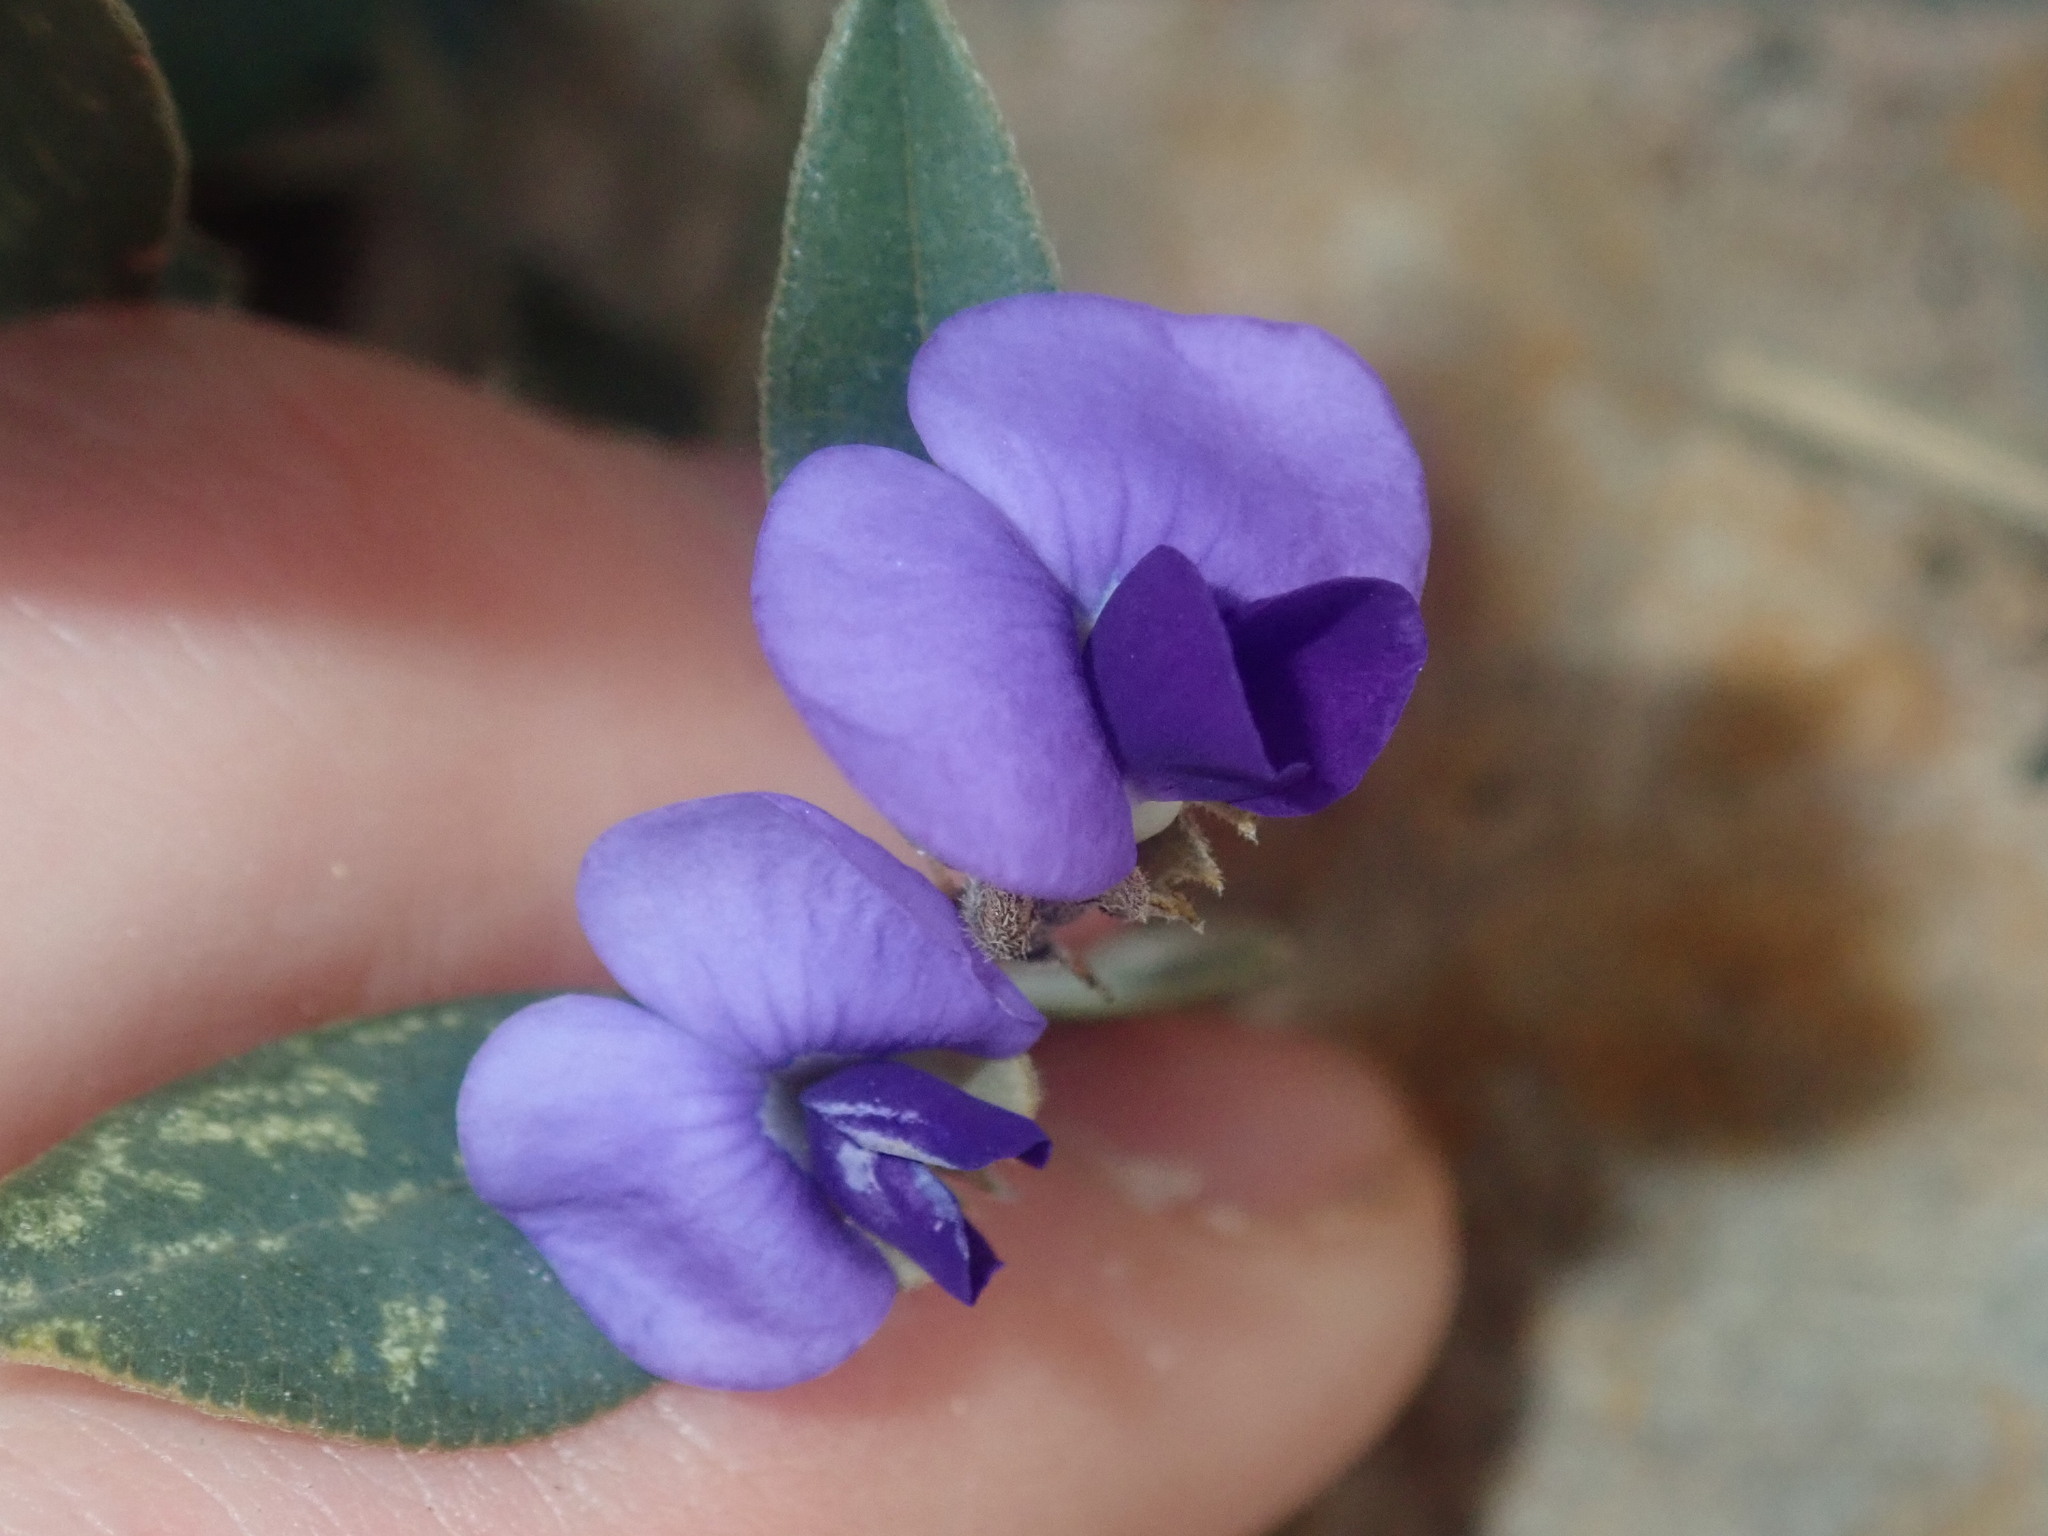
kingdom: Plantae
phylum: Tracheophyta
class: Magnoliopsida
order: Fabales
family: Fabaceae
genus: Hovea
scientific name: Hovea elliptica
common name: Tree hovea
